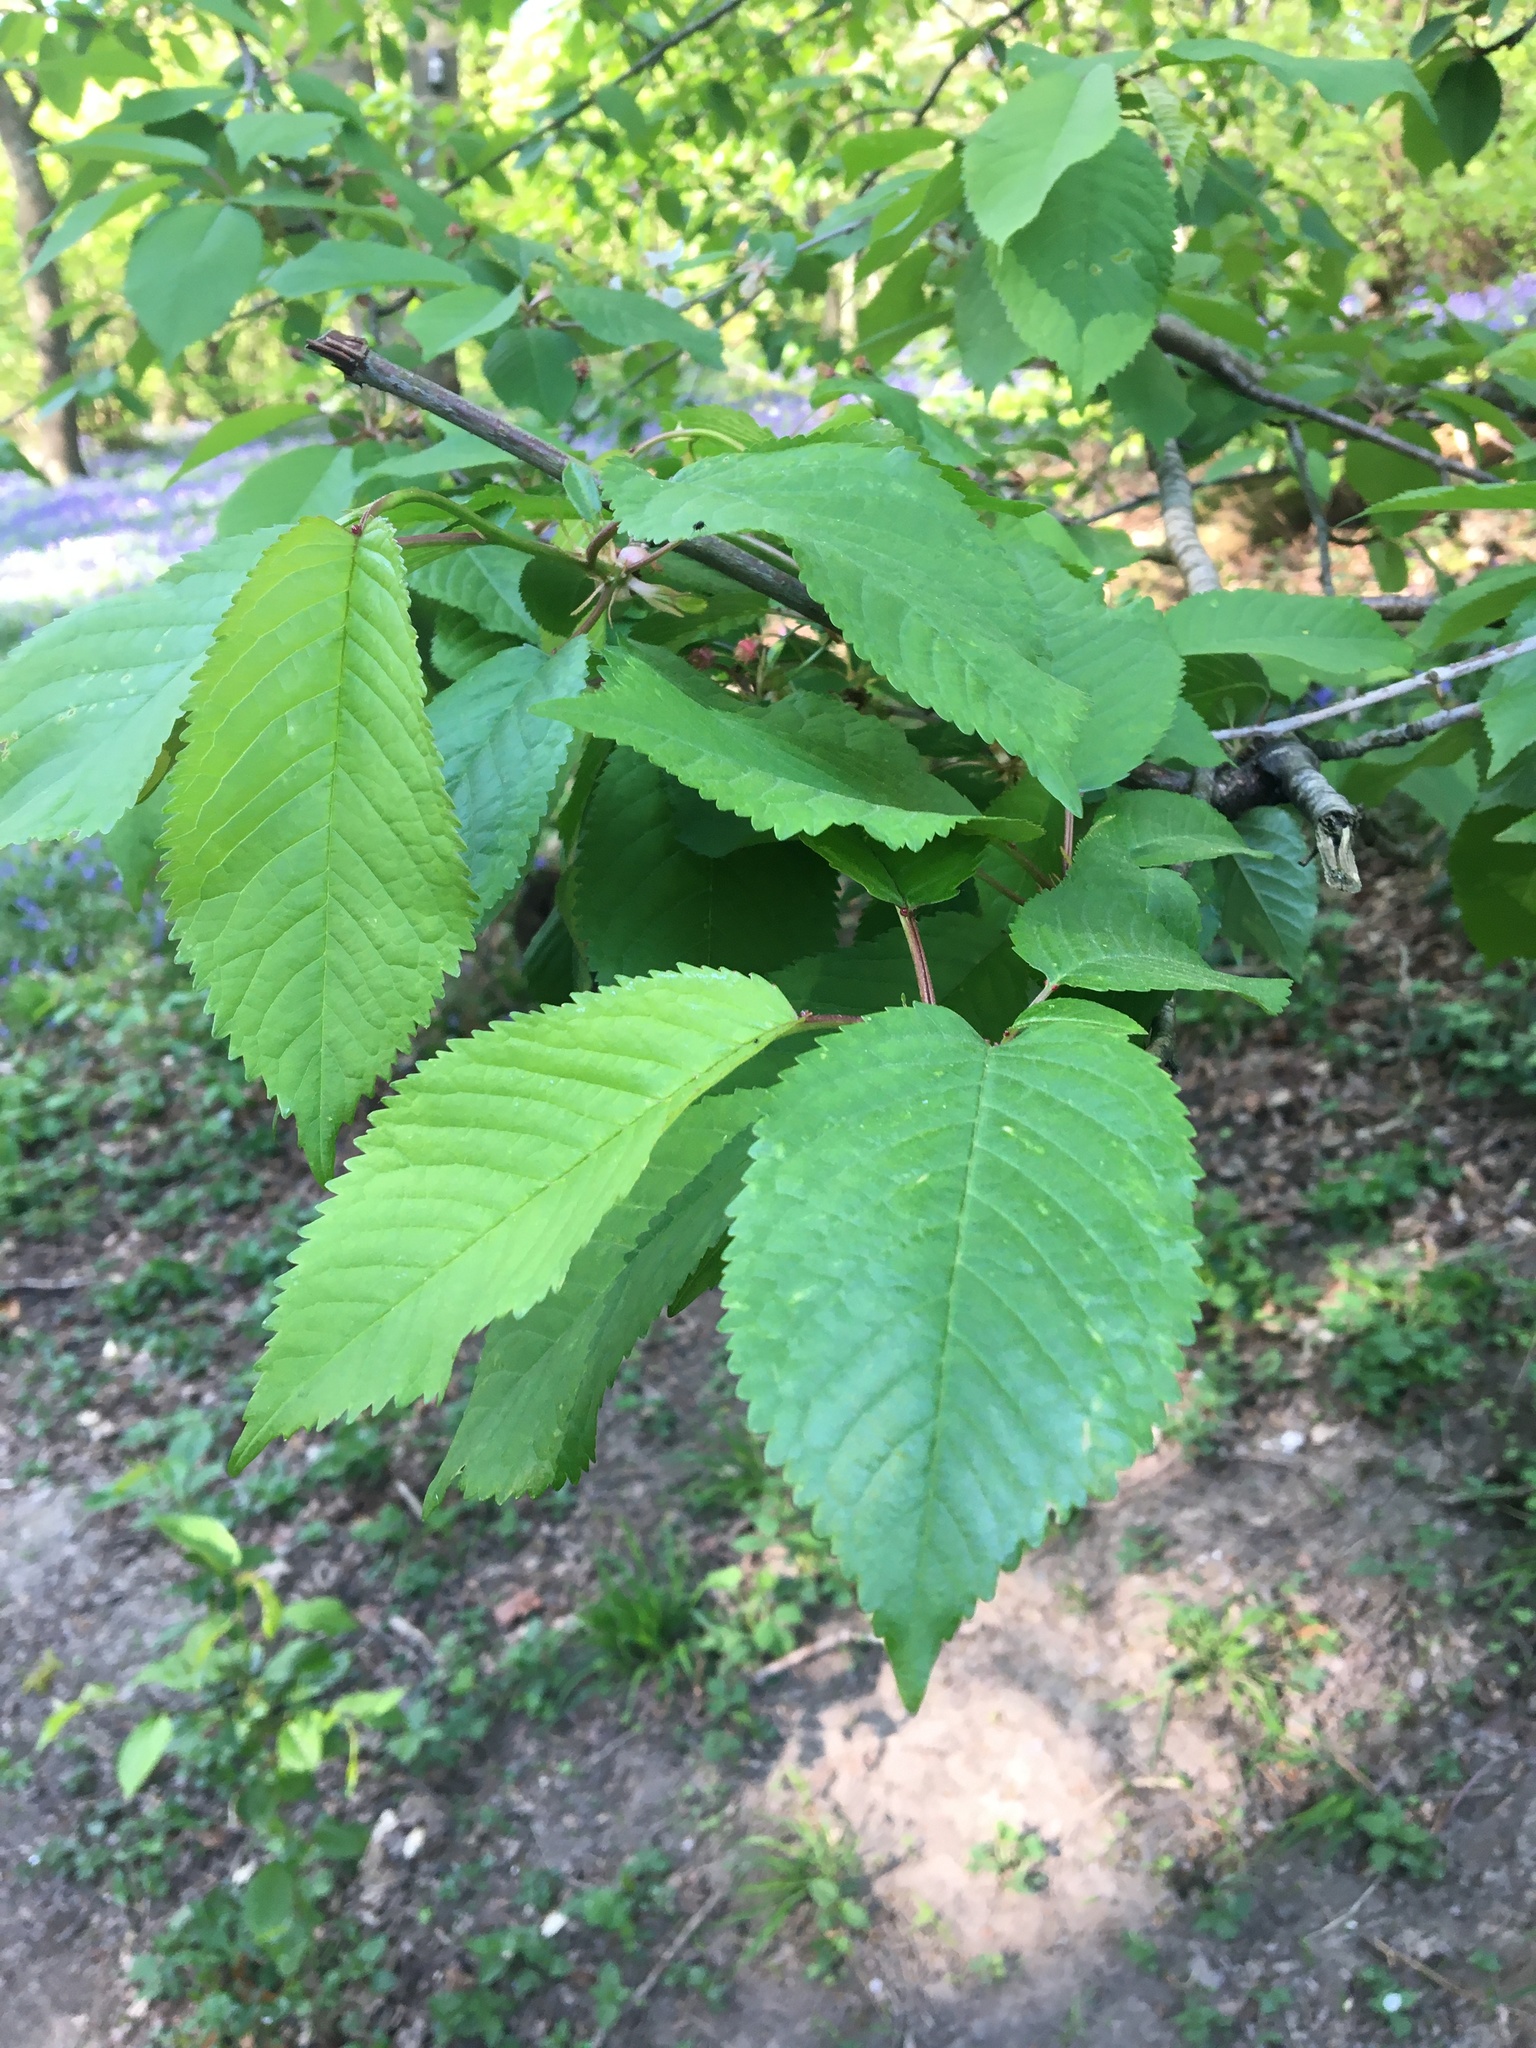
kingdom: Plantae
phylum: Tracheophyta
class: Magnoliopsida
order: Rosales
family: Rosaceae
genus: Prunus
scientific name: Prunus avium
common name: Sweet cherry
